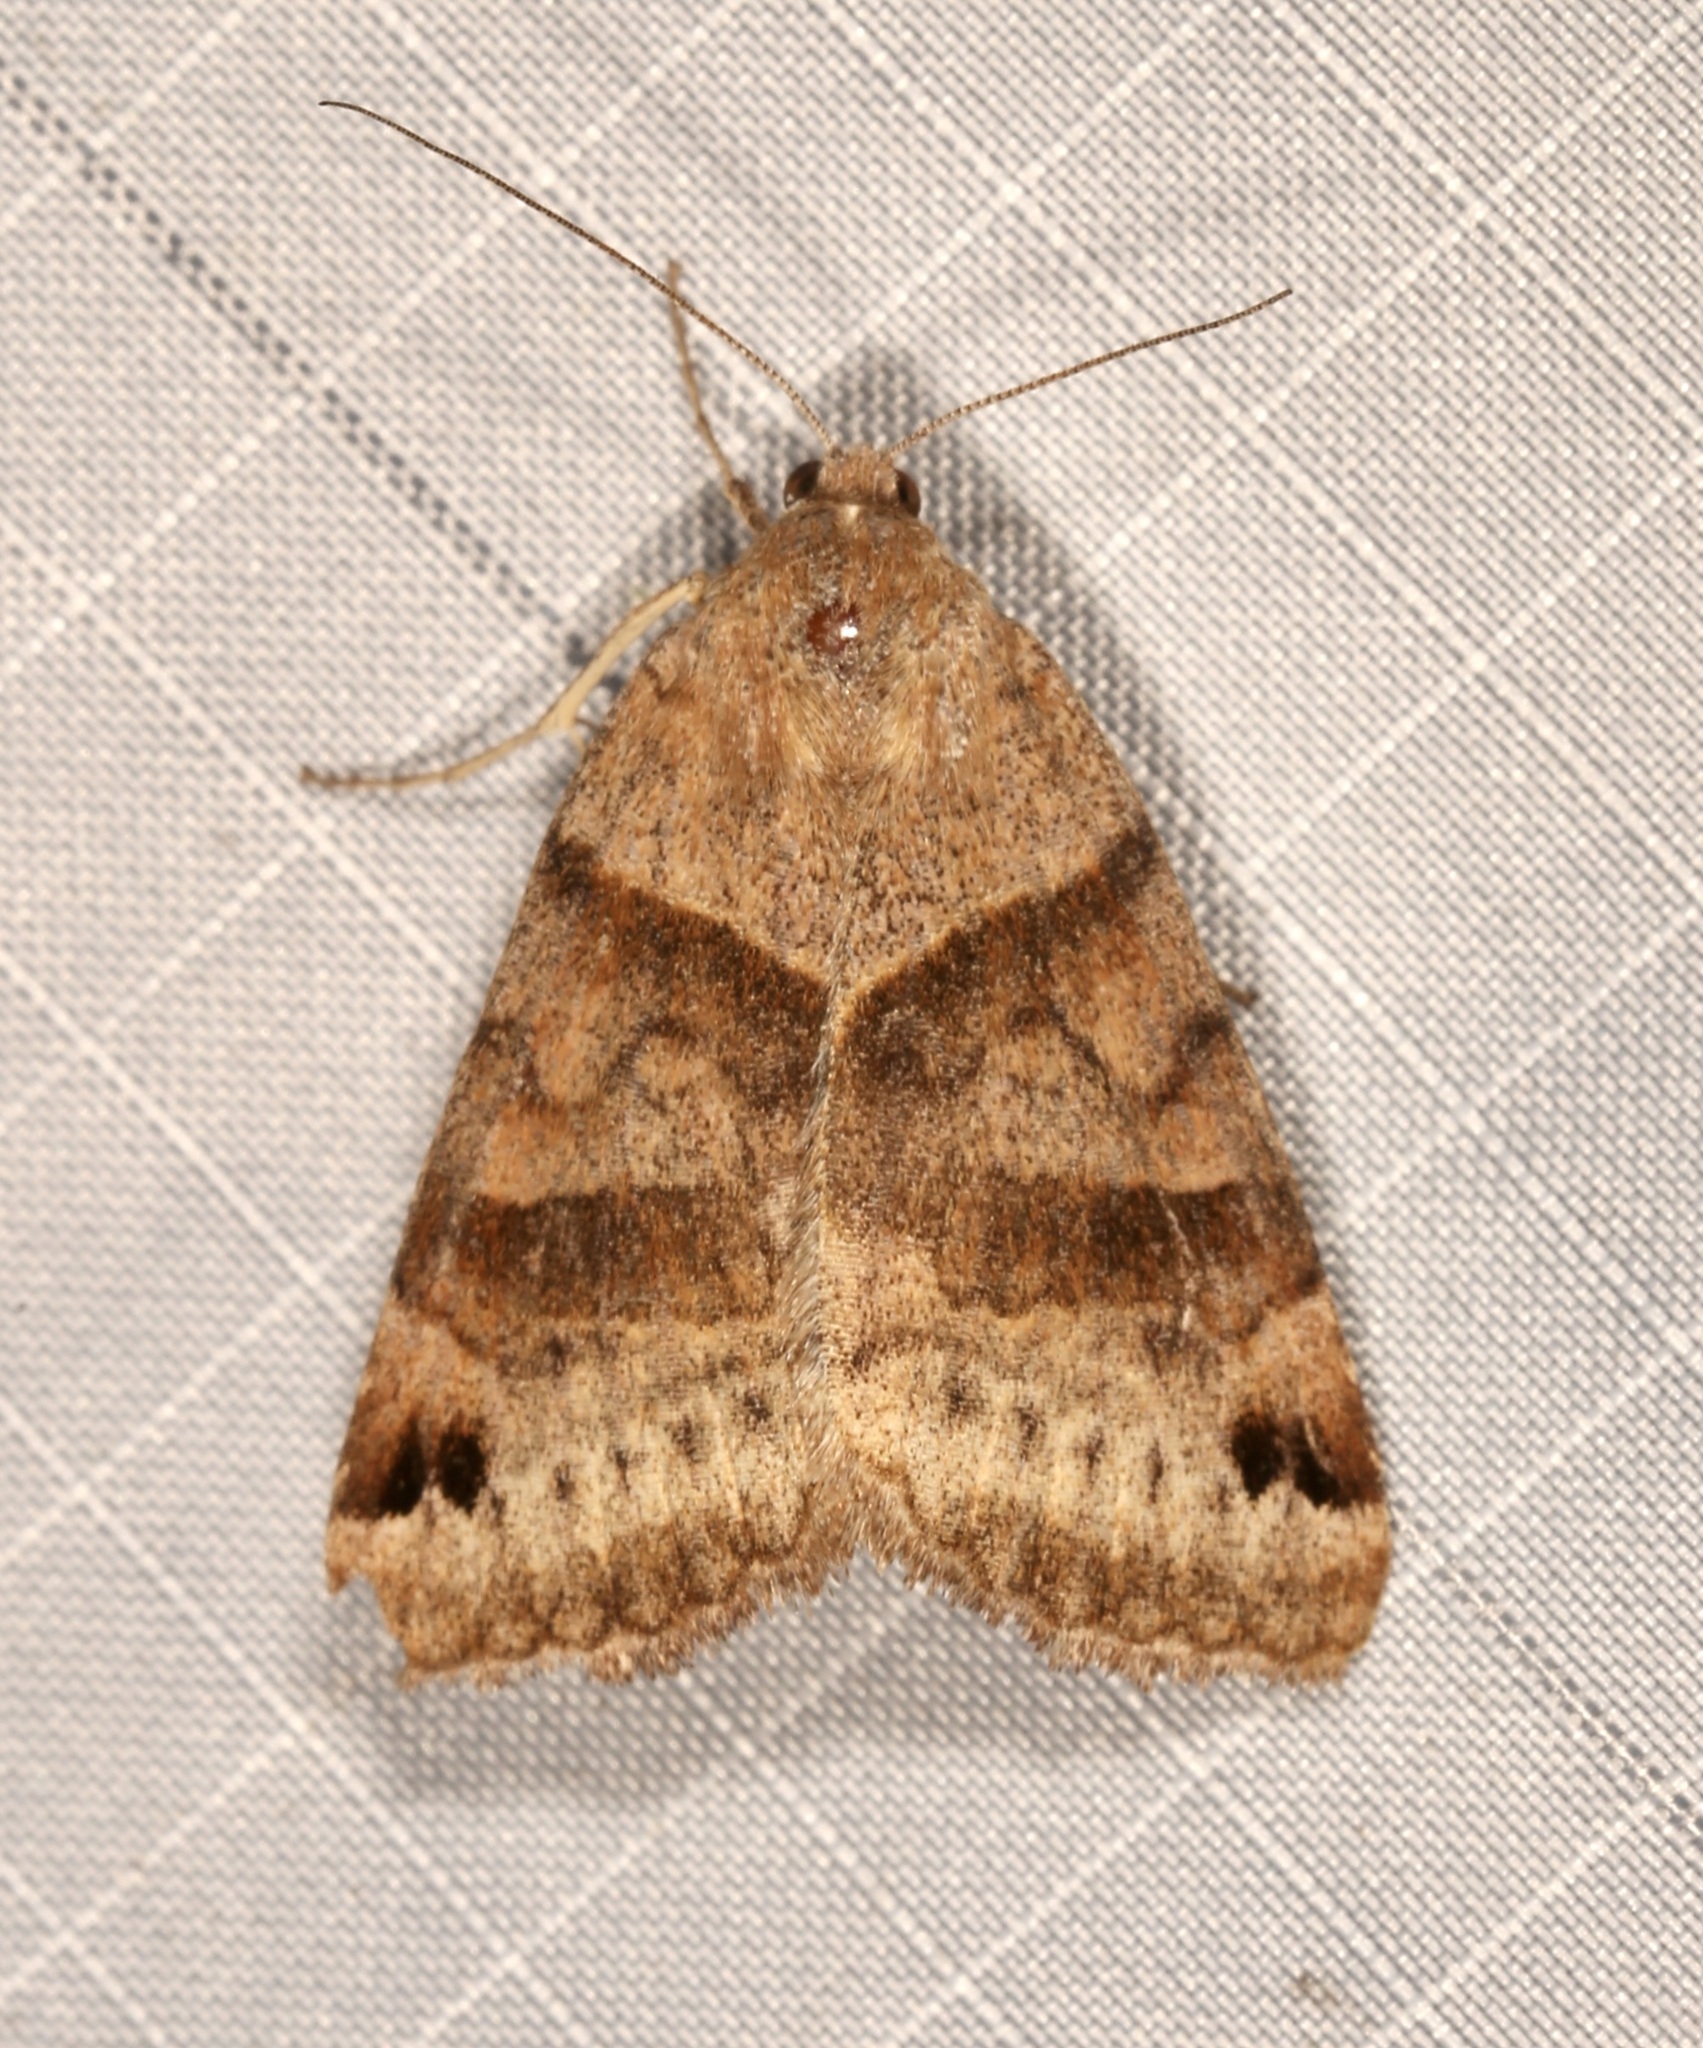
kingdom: Animalia
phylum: Arthropoda
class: Insecta
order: Lepidoptera
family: Erebidae
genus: Caenurgina
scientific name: Caenurgina crassiuscula
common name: Double-barred
